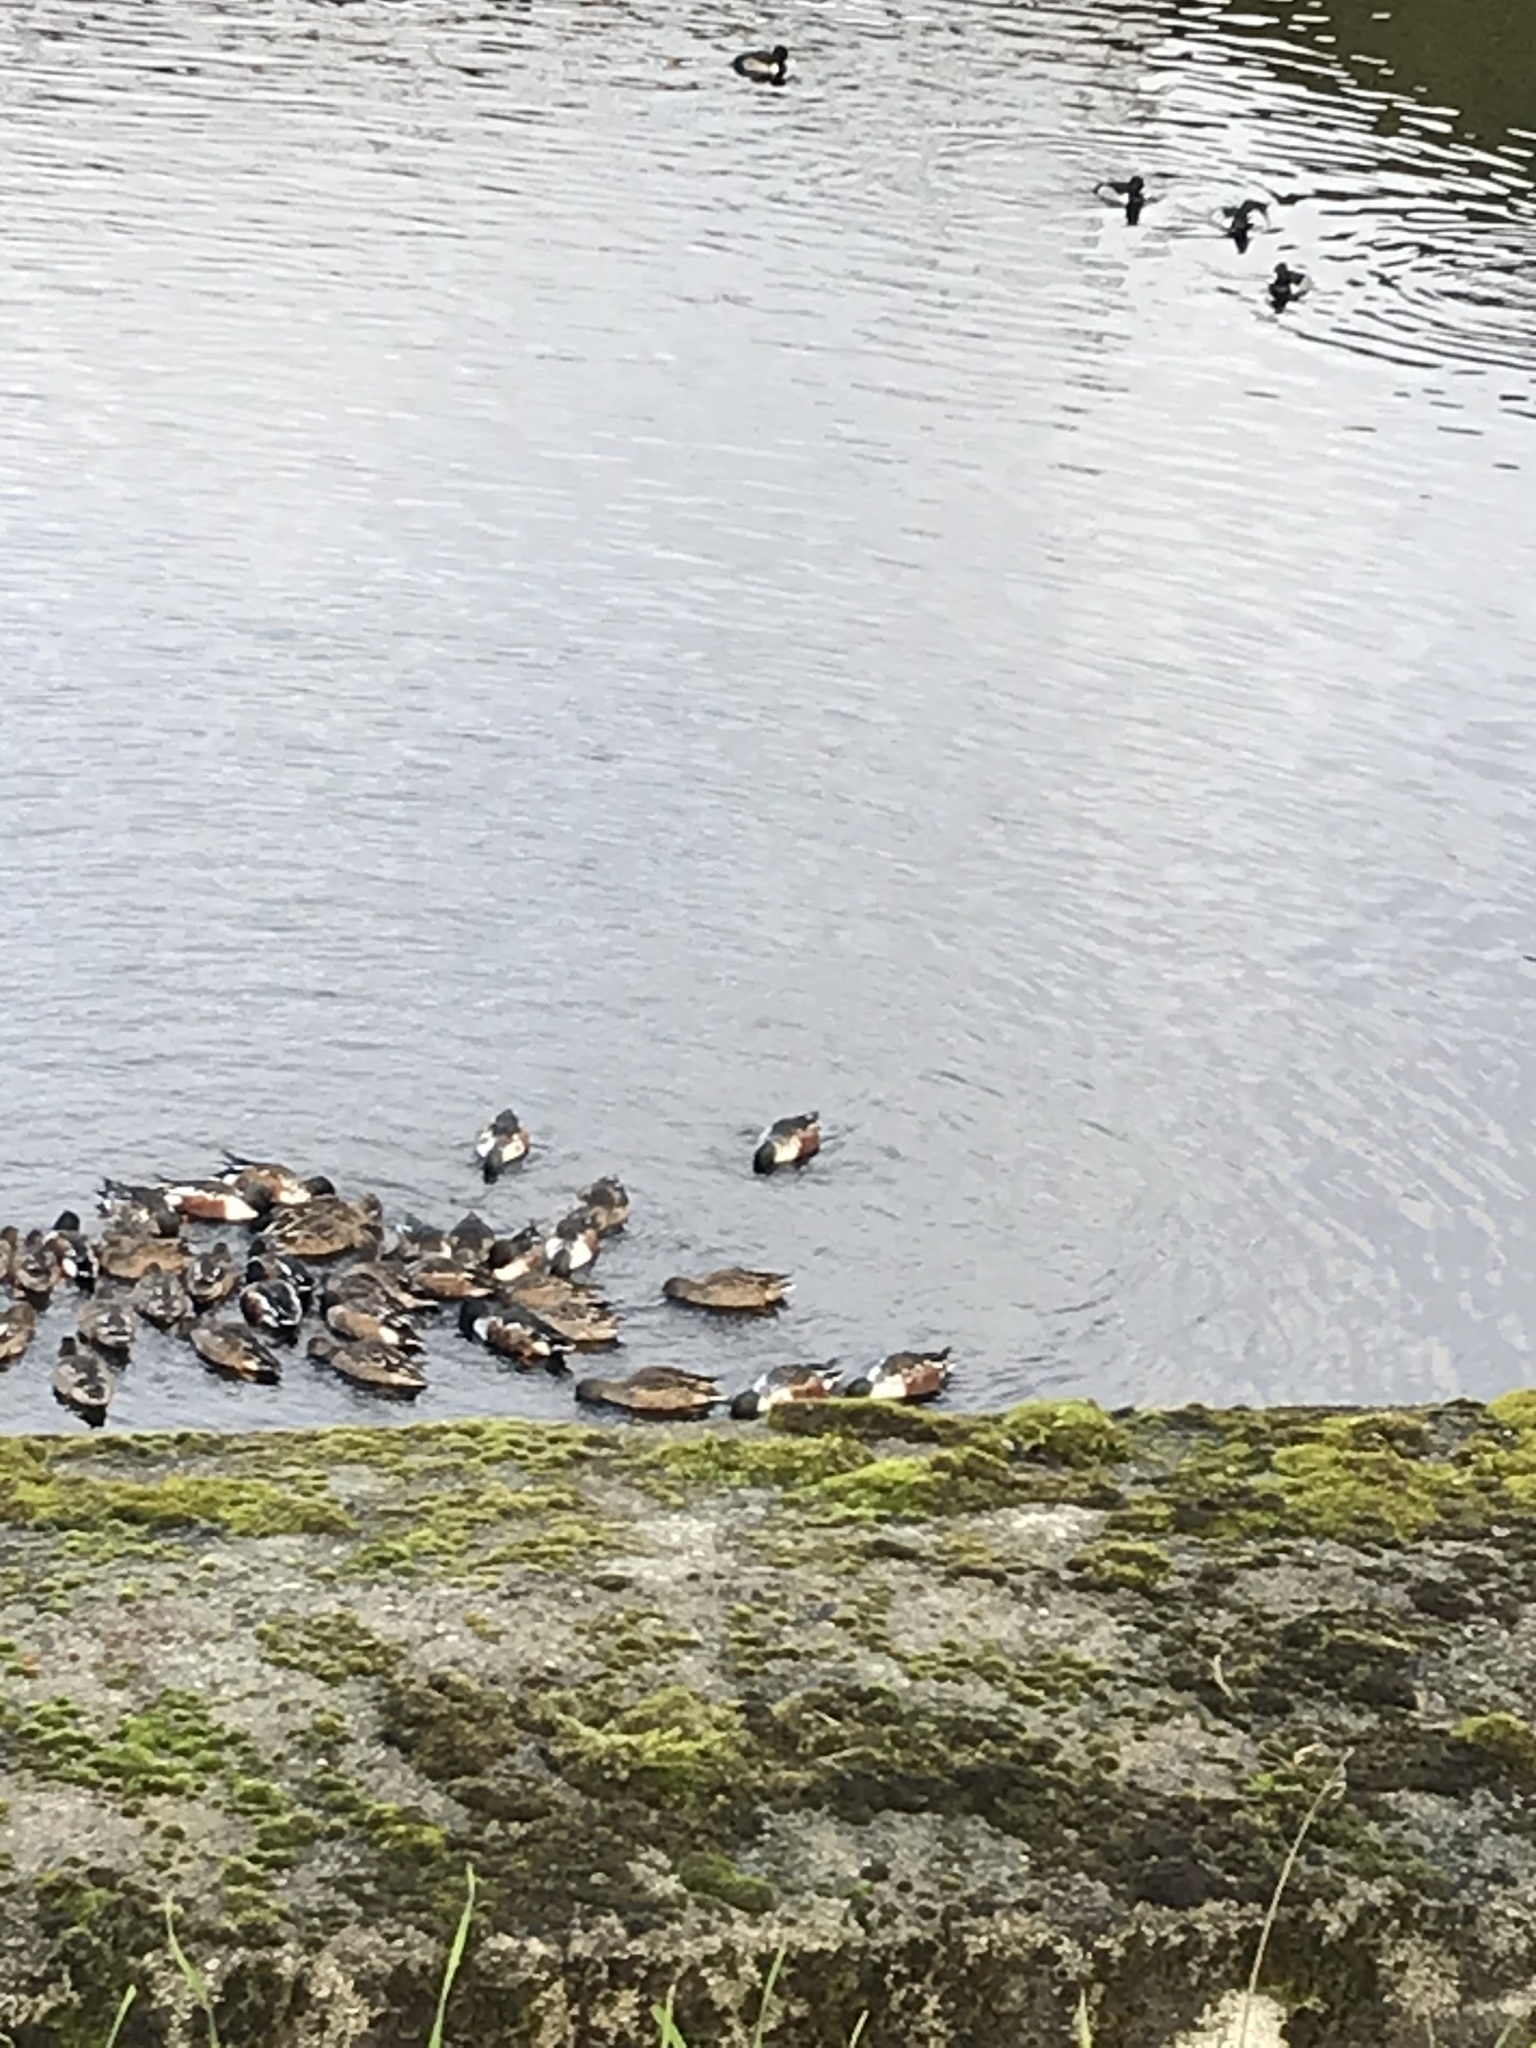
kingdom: Animalia
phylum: Chordata
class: Aves
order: Anseriformes
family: Anatidae
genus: Spatula
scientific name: Spatula clypeata
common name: Northern shoveler
